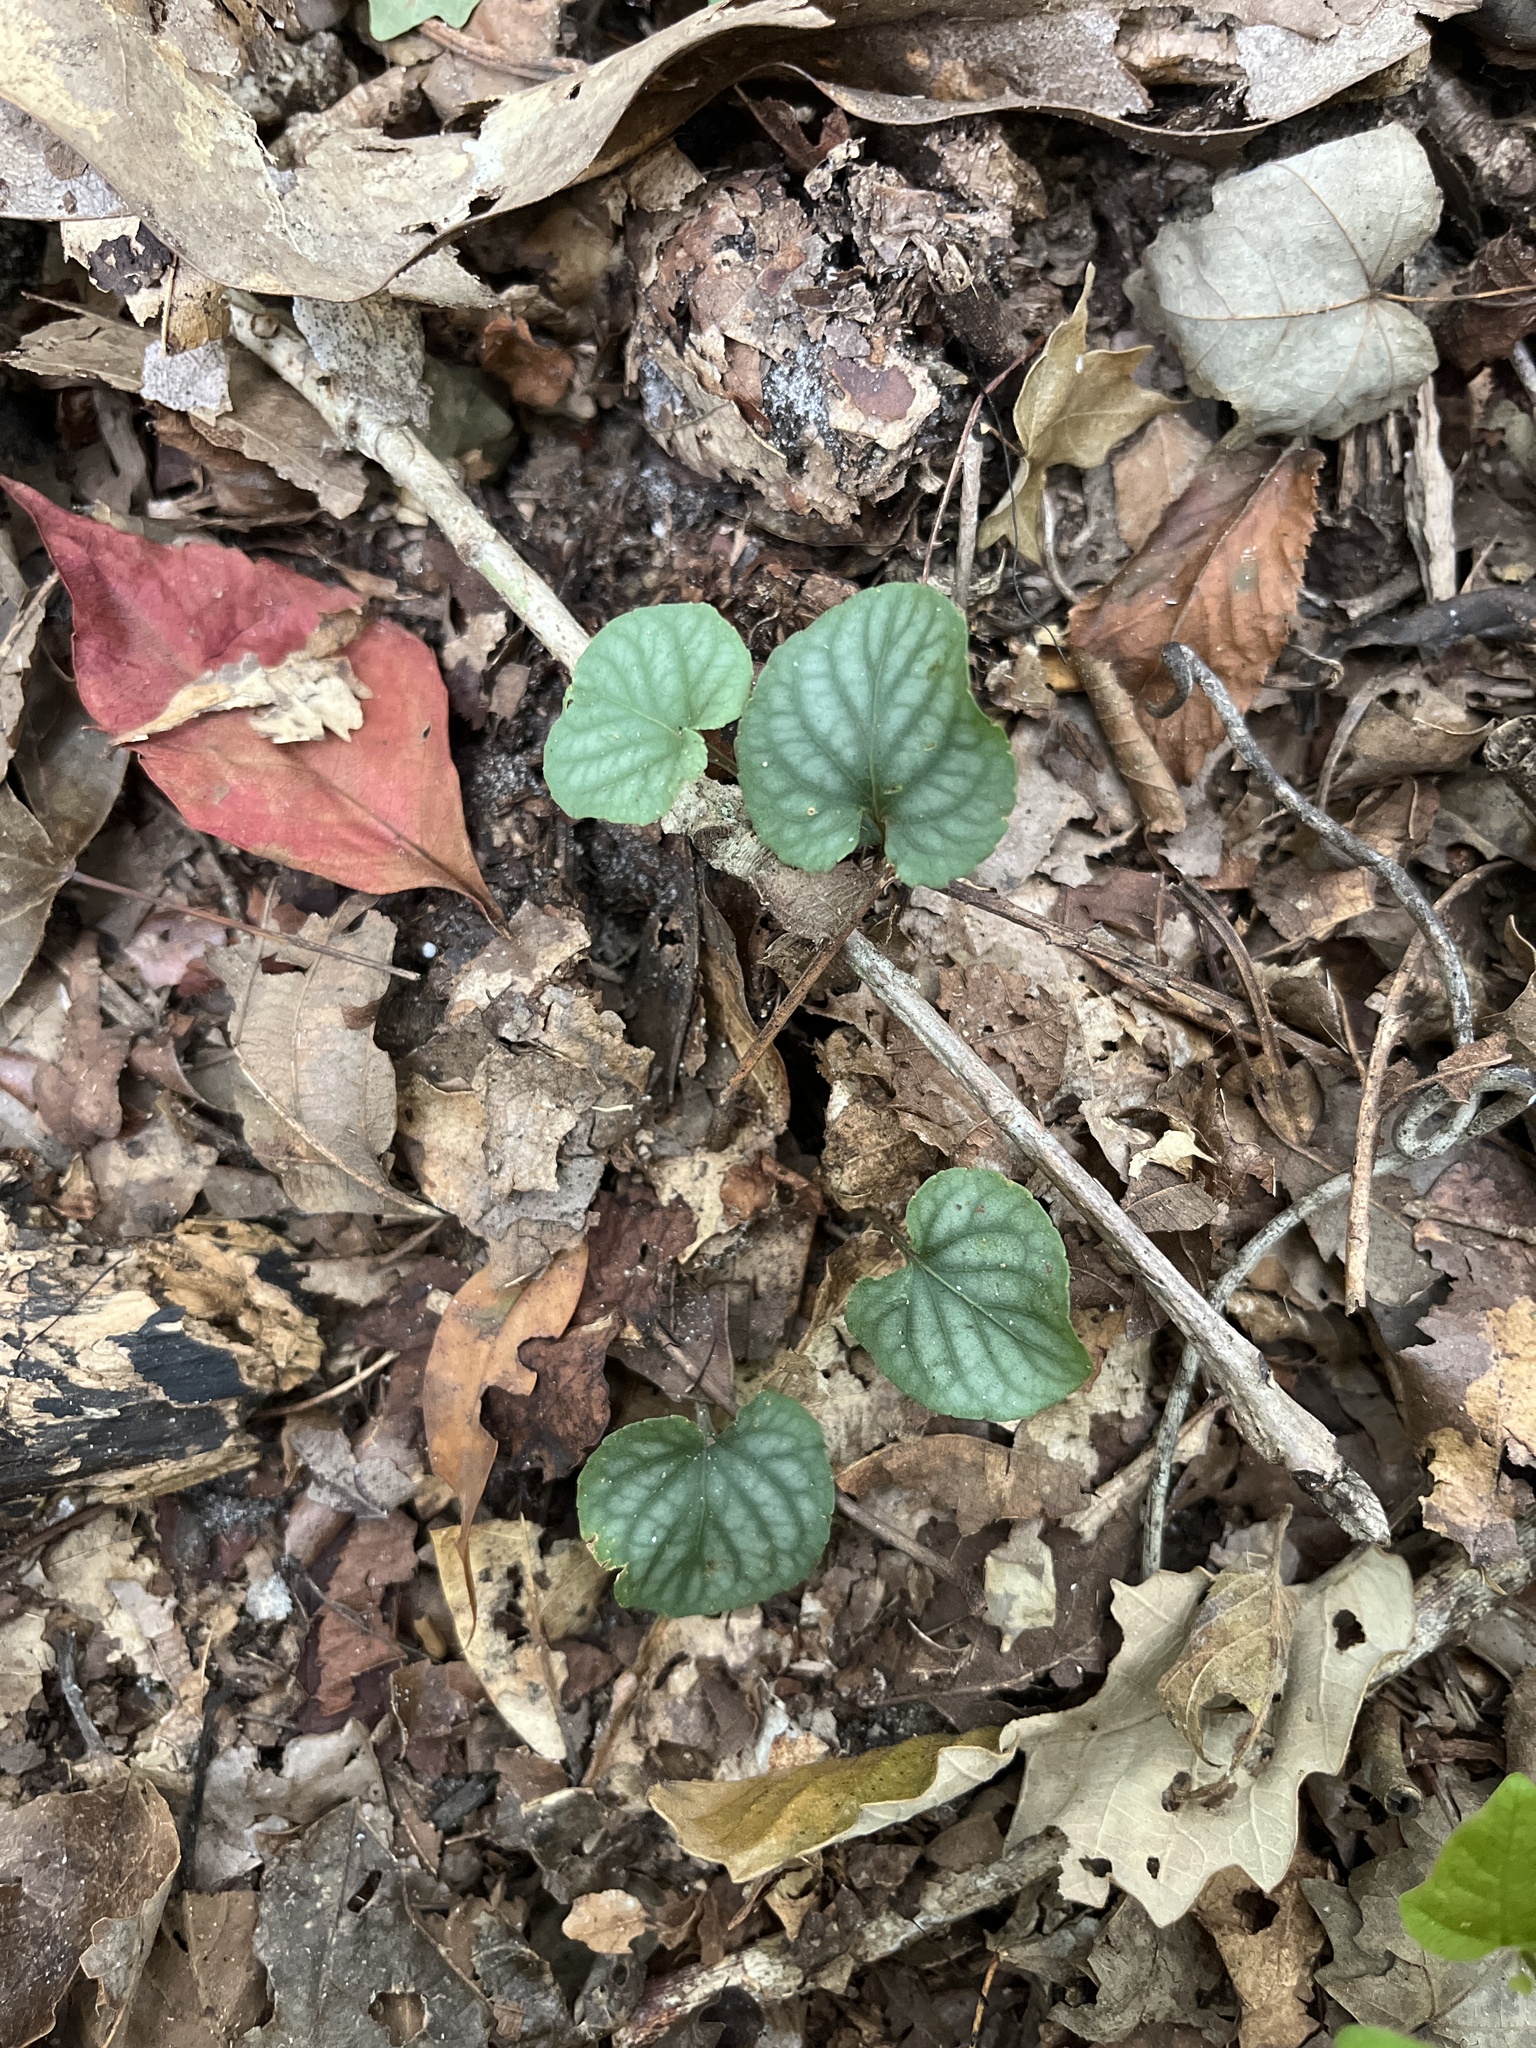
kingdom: Plantae
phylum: Tracheophyta
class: Magnoliopsida
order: Malpighiales
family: Violaceae
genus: Viola
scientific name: Viola walteri
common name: Prostrate southern violet
